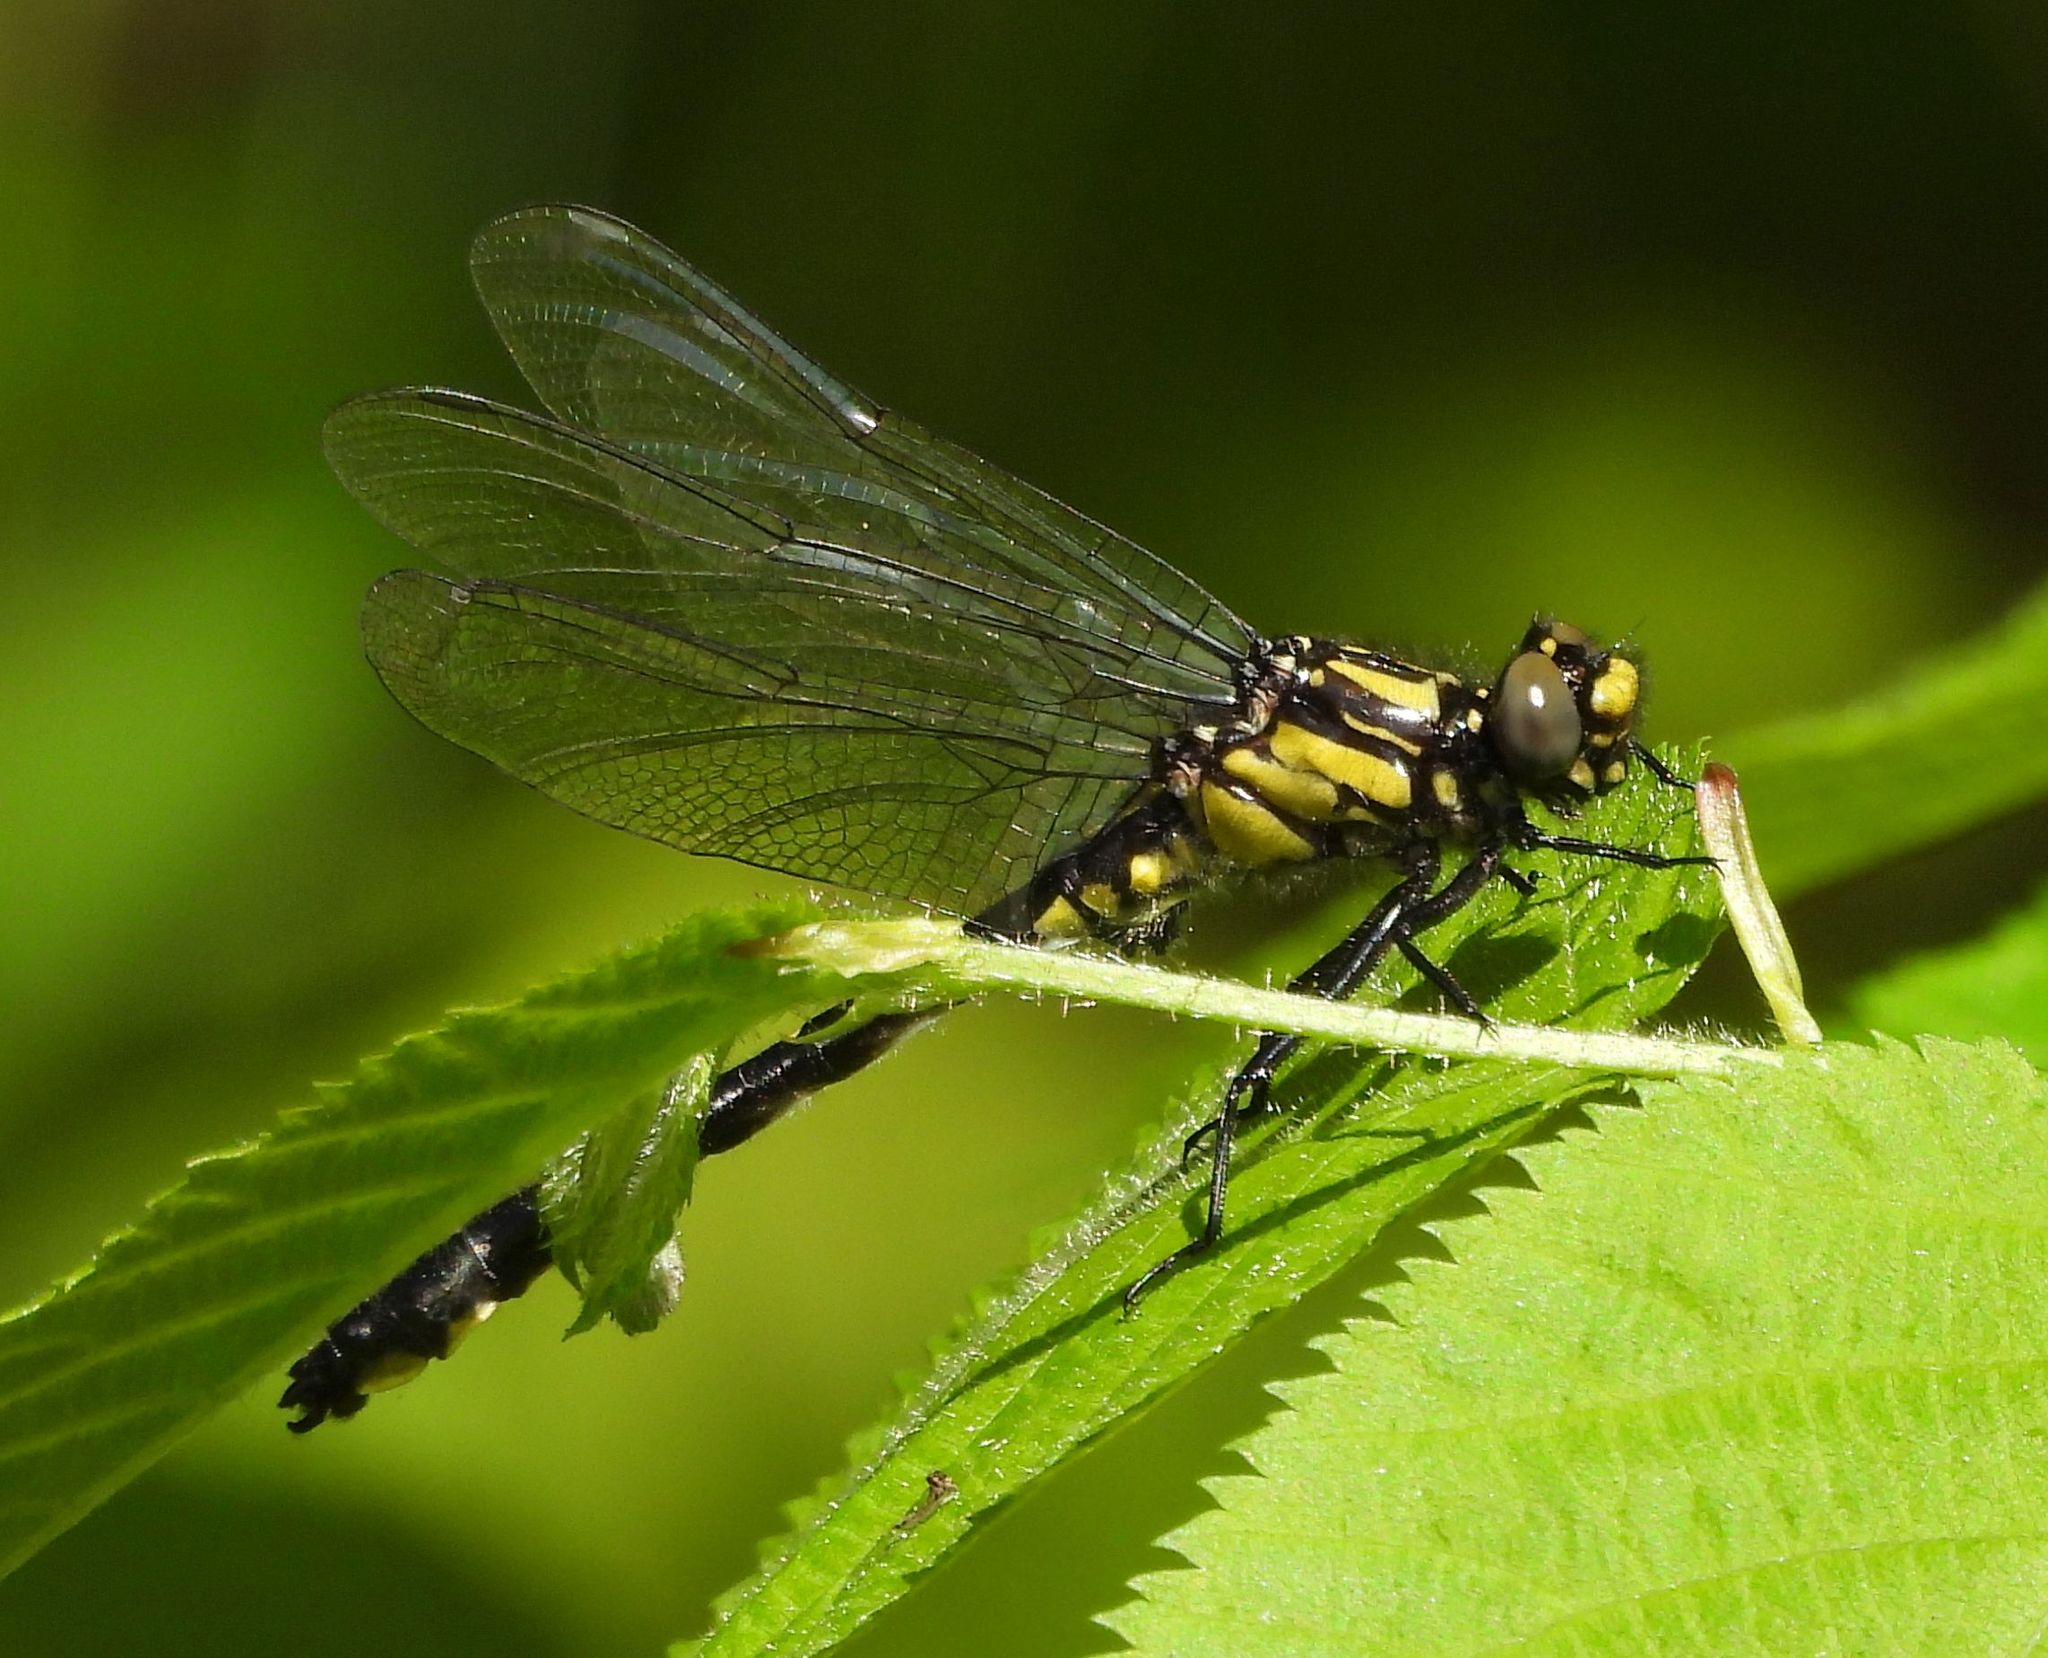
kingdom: Animalia
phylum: Arthropoda
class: Insecta
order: Odonata
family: Gomphidae
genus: Hylogomphus
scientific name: Hylogomphus adelphus
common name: Mustached clubtail
